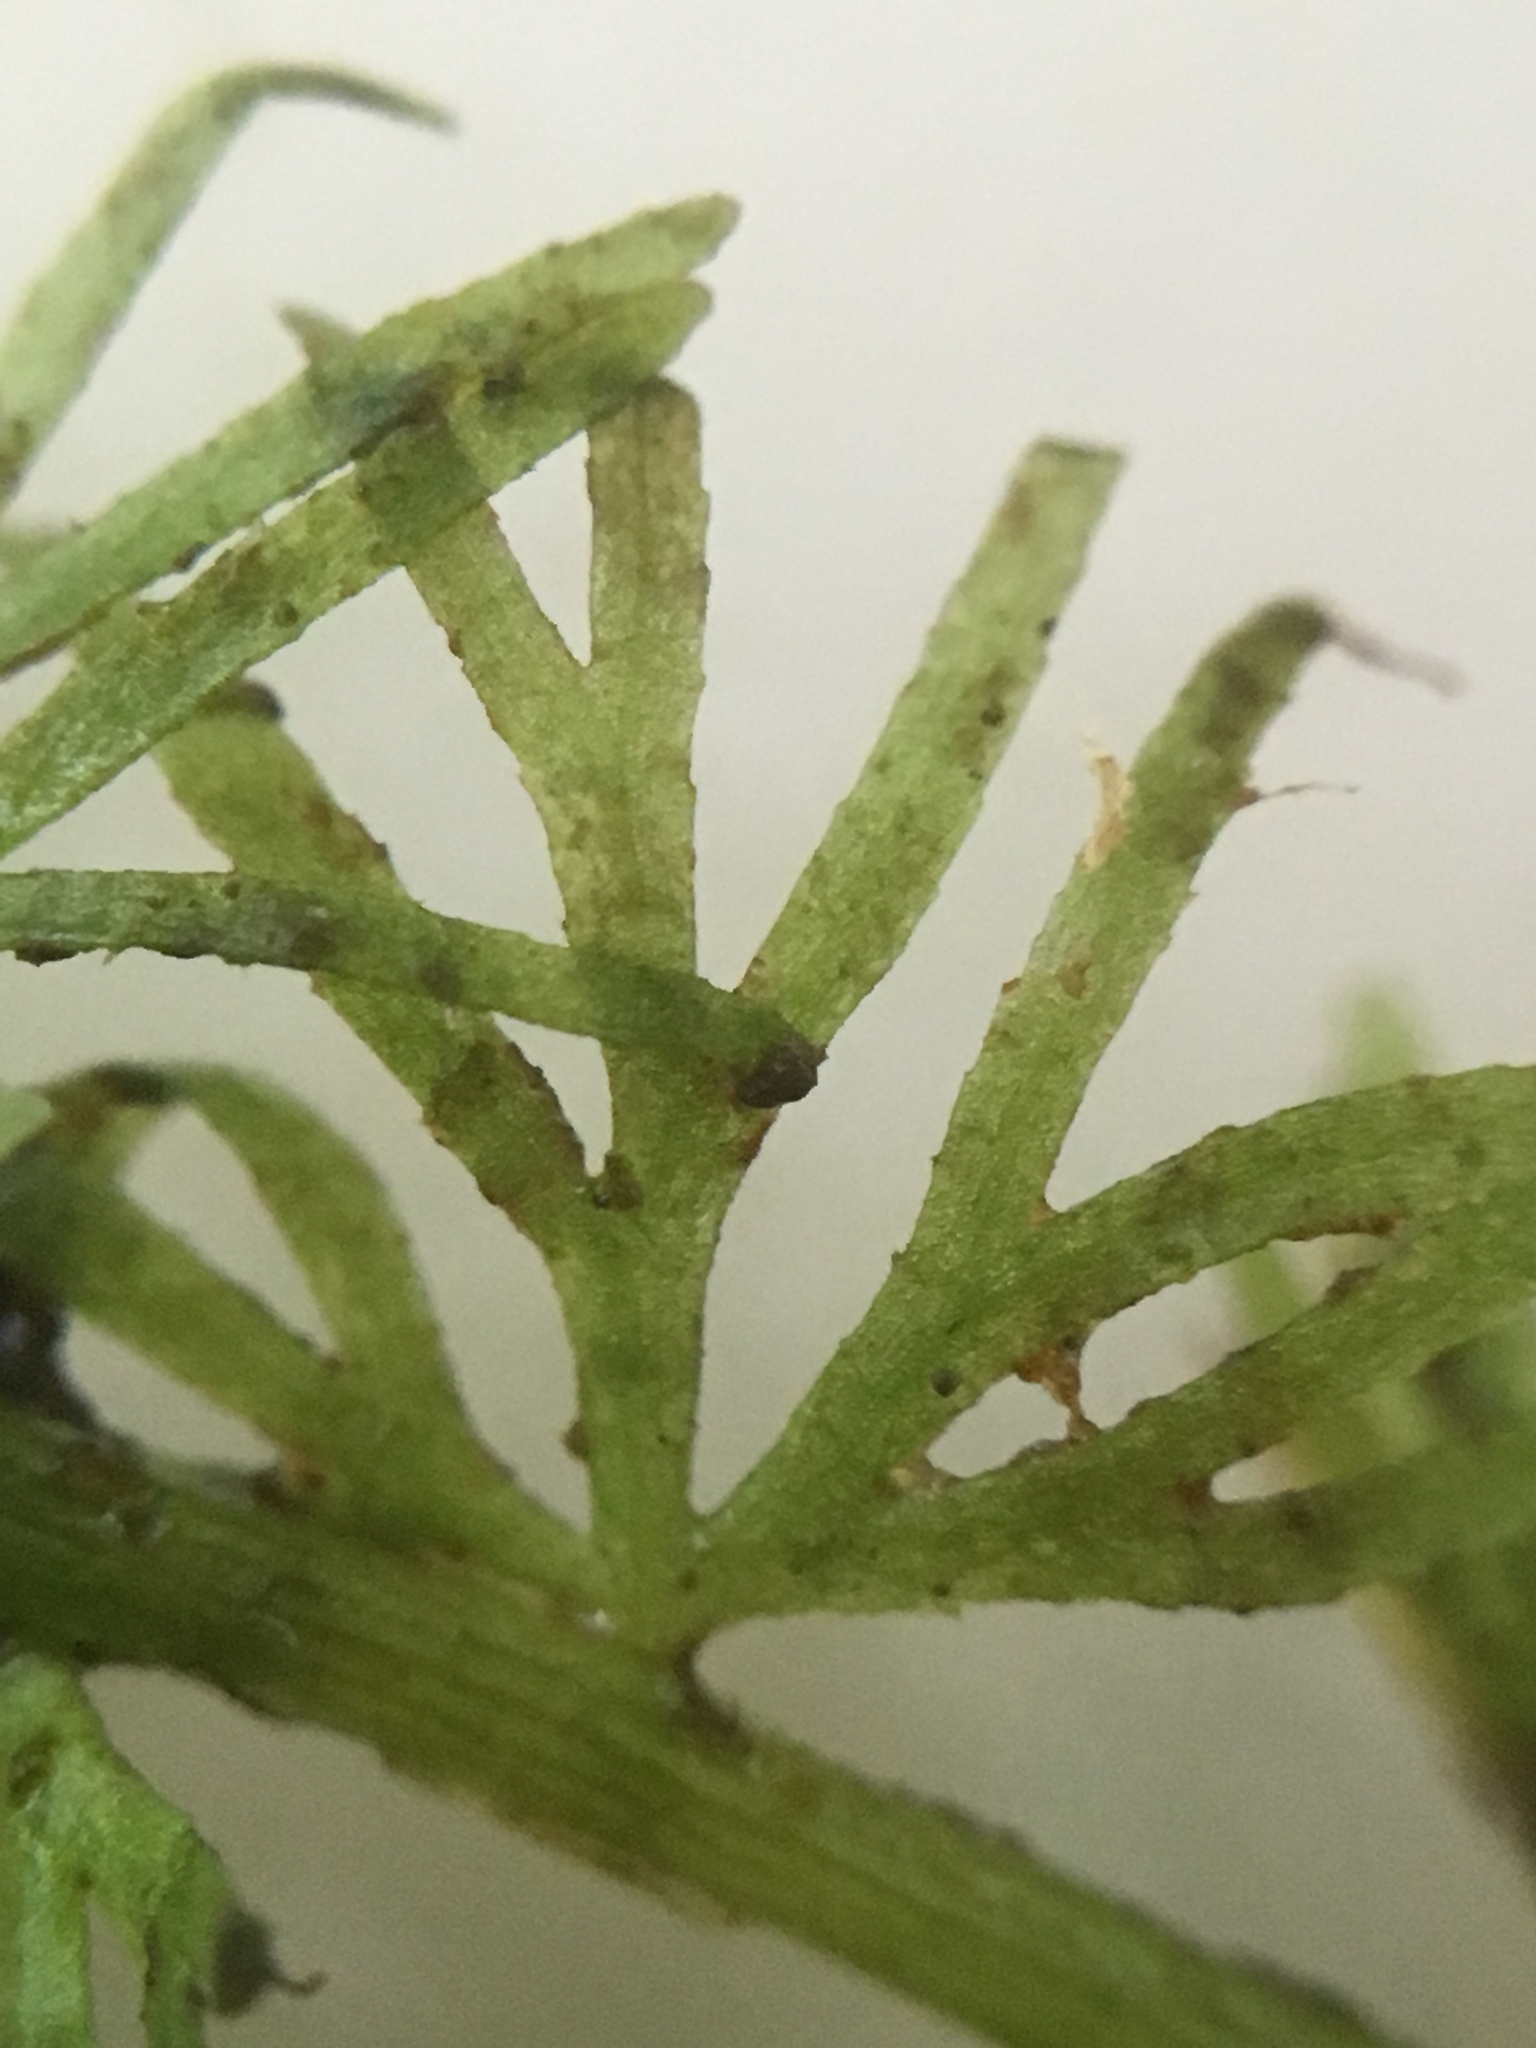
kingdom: Plantae
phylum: Tracheophyta
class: Magnoliopsida
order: Lamiales
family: Lentibulariaceae
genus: Utricularia
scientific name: Utricularia intermedia
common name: Intermediate bladderwort
